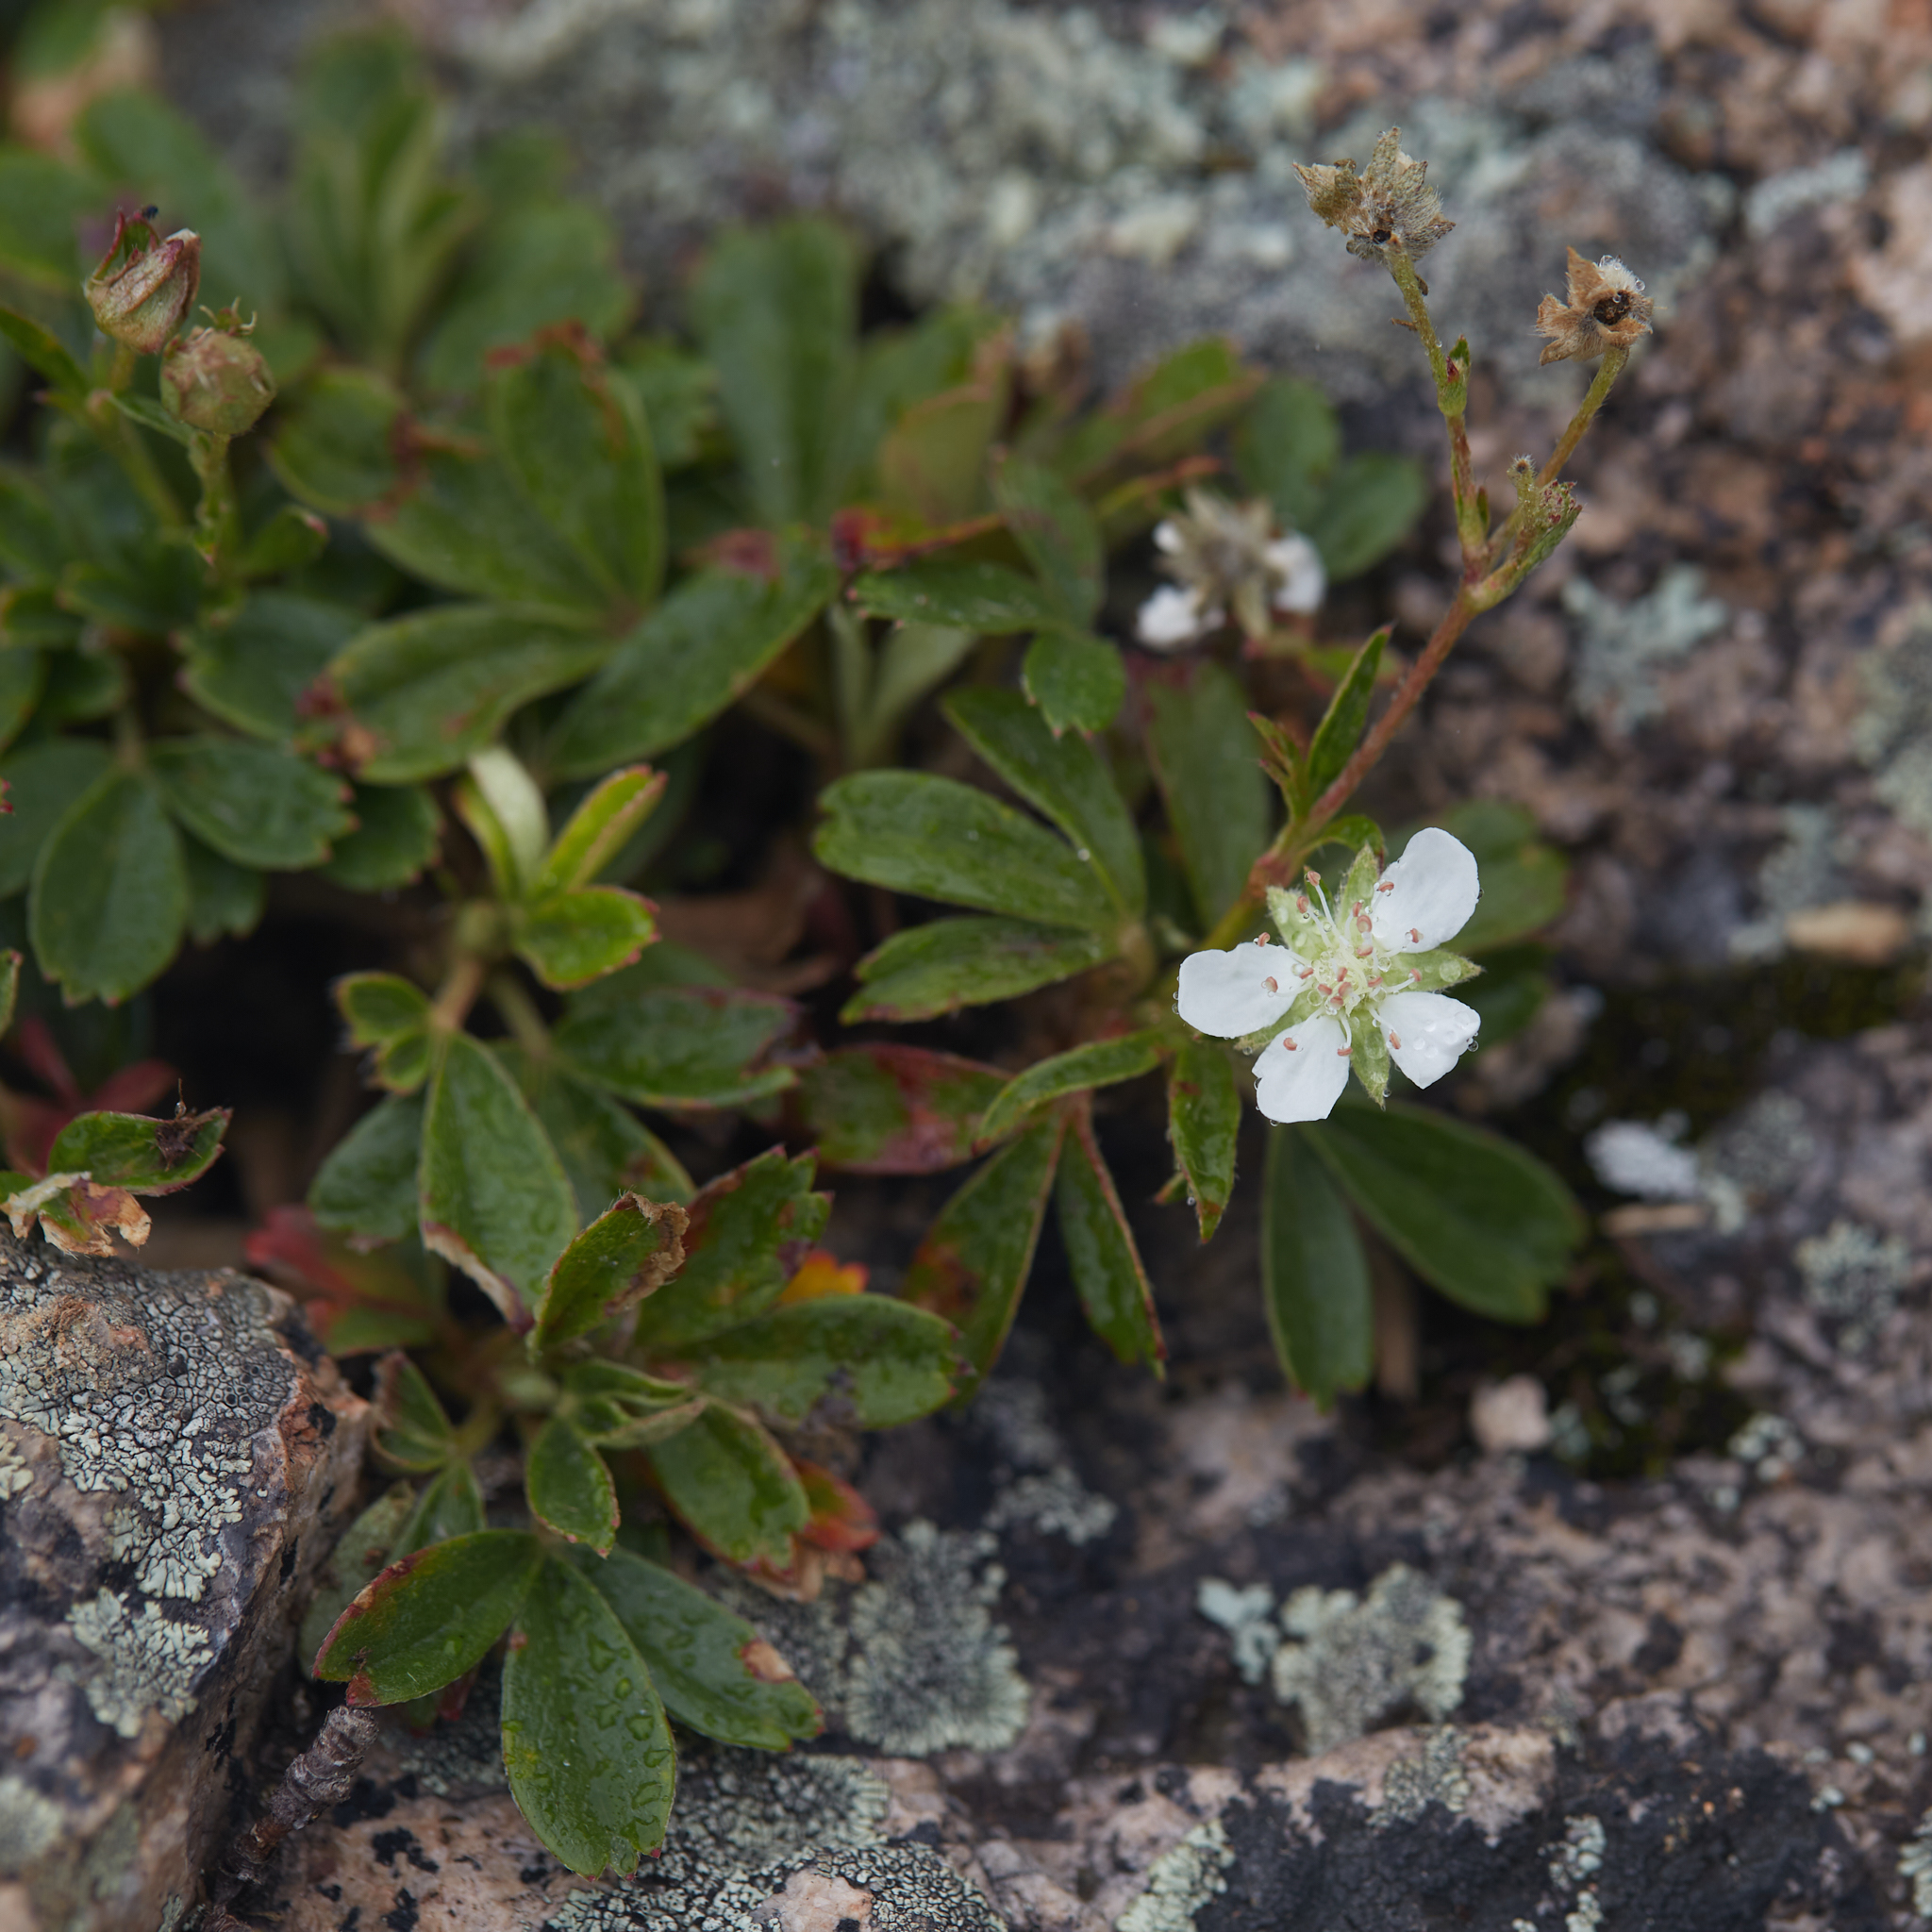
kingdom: Plantae
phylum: Tracheophyta
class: Magnoliopsida
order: Rosales
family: Rosaceae
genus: Sibbaldia
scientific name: Sibbaldia tridentata
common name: Three-toothed cinquefoil
